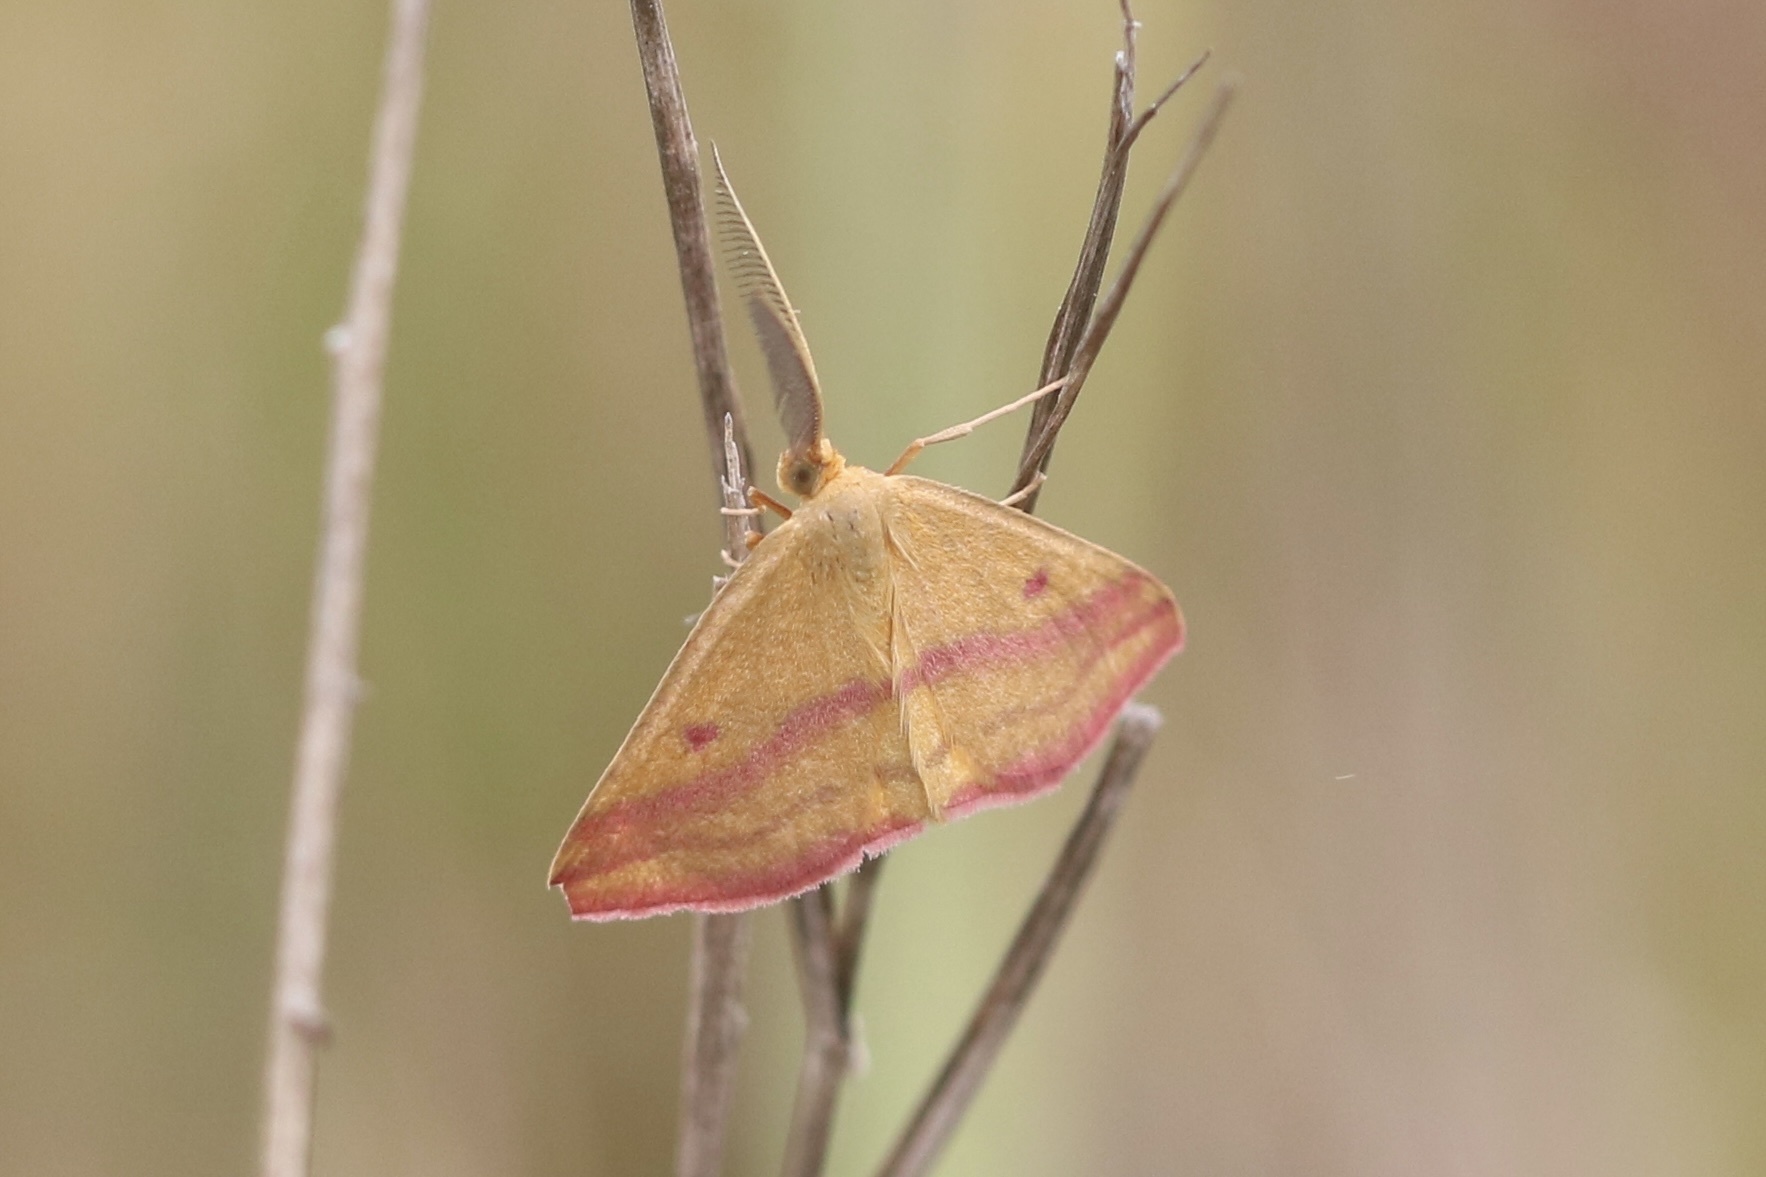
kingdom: Animalia
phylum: Arthropoda
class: Insecta
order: Lepidoptera
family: Geometridae
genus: Haematopis
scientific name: Haematopis grataria
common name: Chickweed geometer
